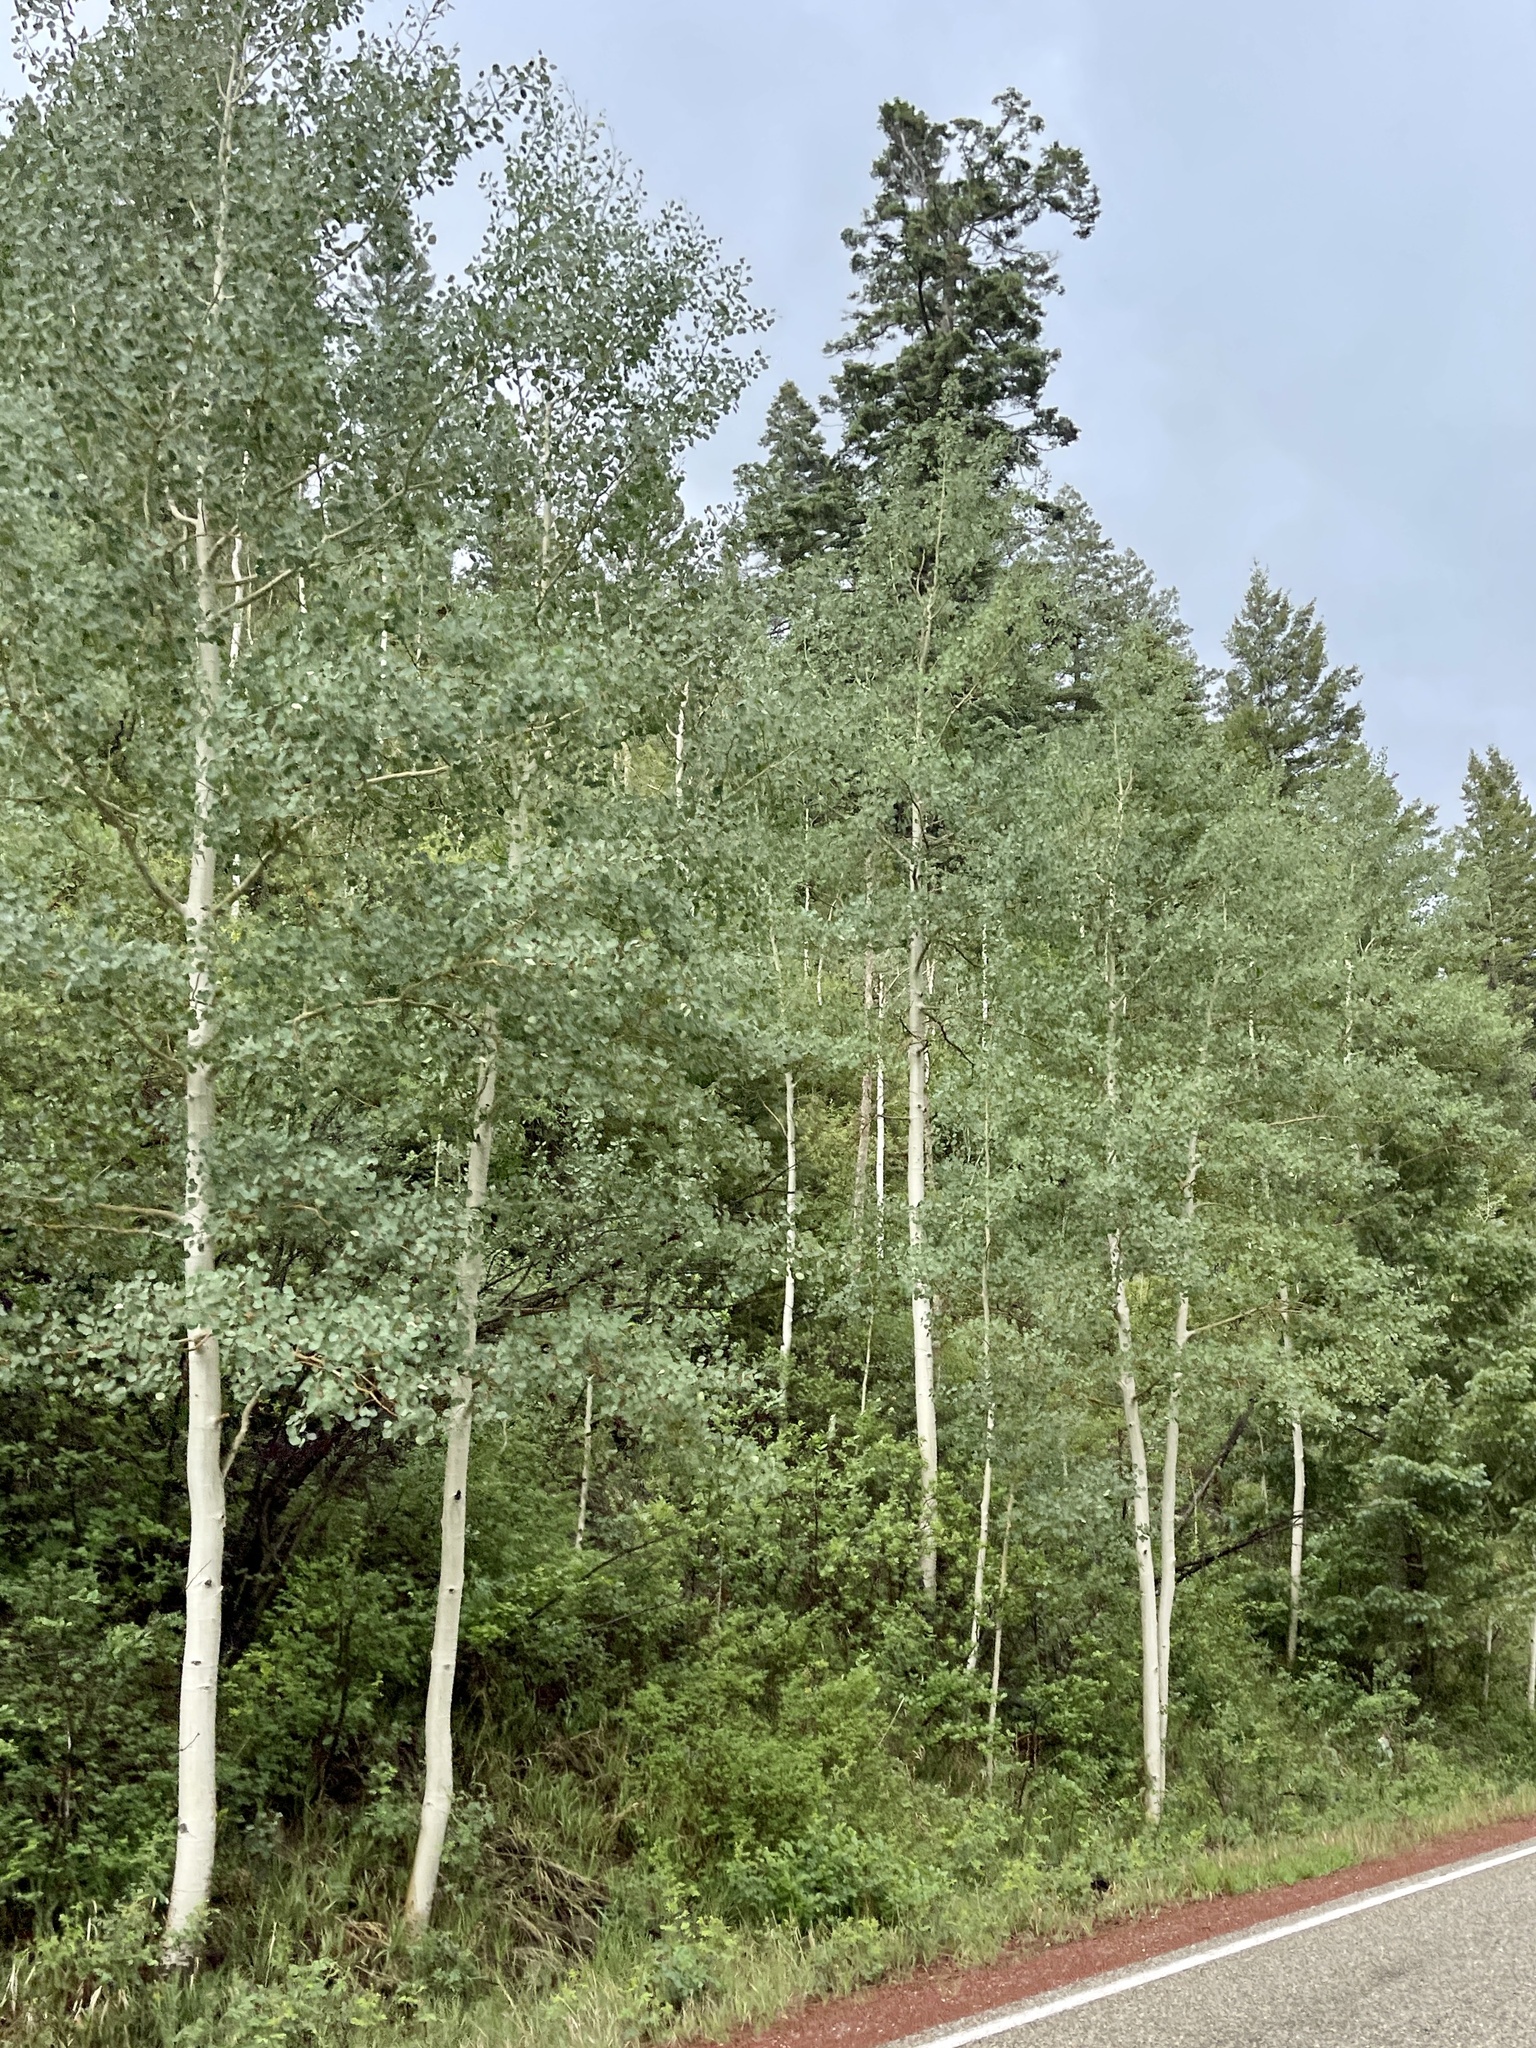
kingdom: Plantae
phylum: Tracheophyta
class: Magnoliopsida
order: Malpighiales
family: Salicaceae
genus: Populus
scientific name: Populus tremuloides
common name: Quaking aspen
